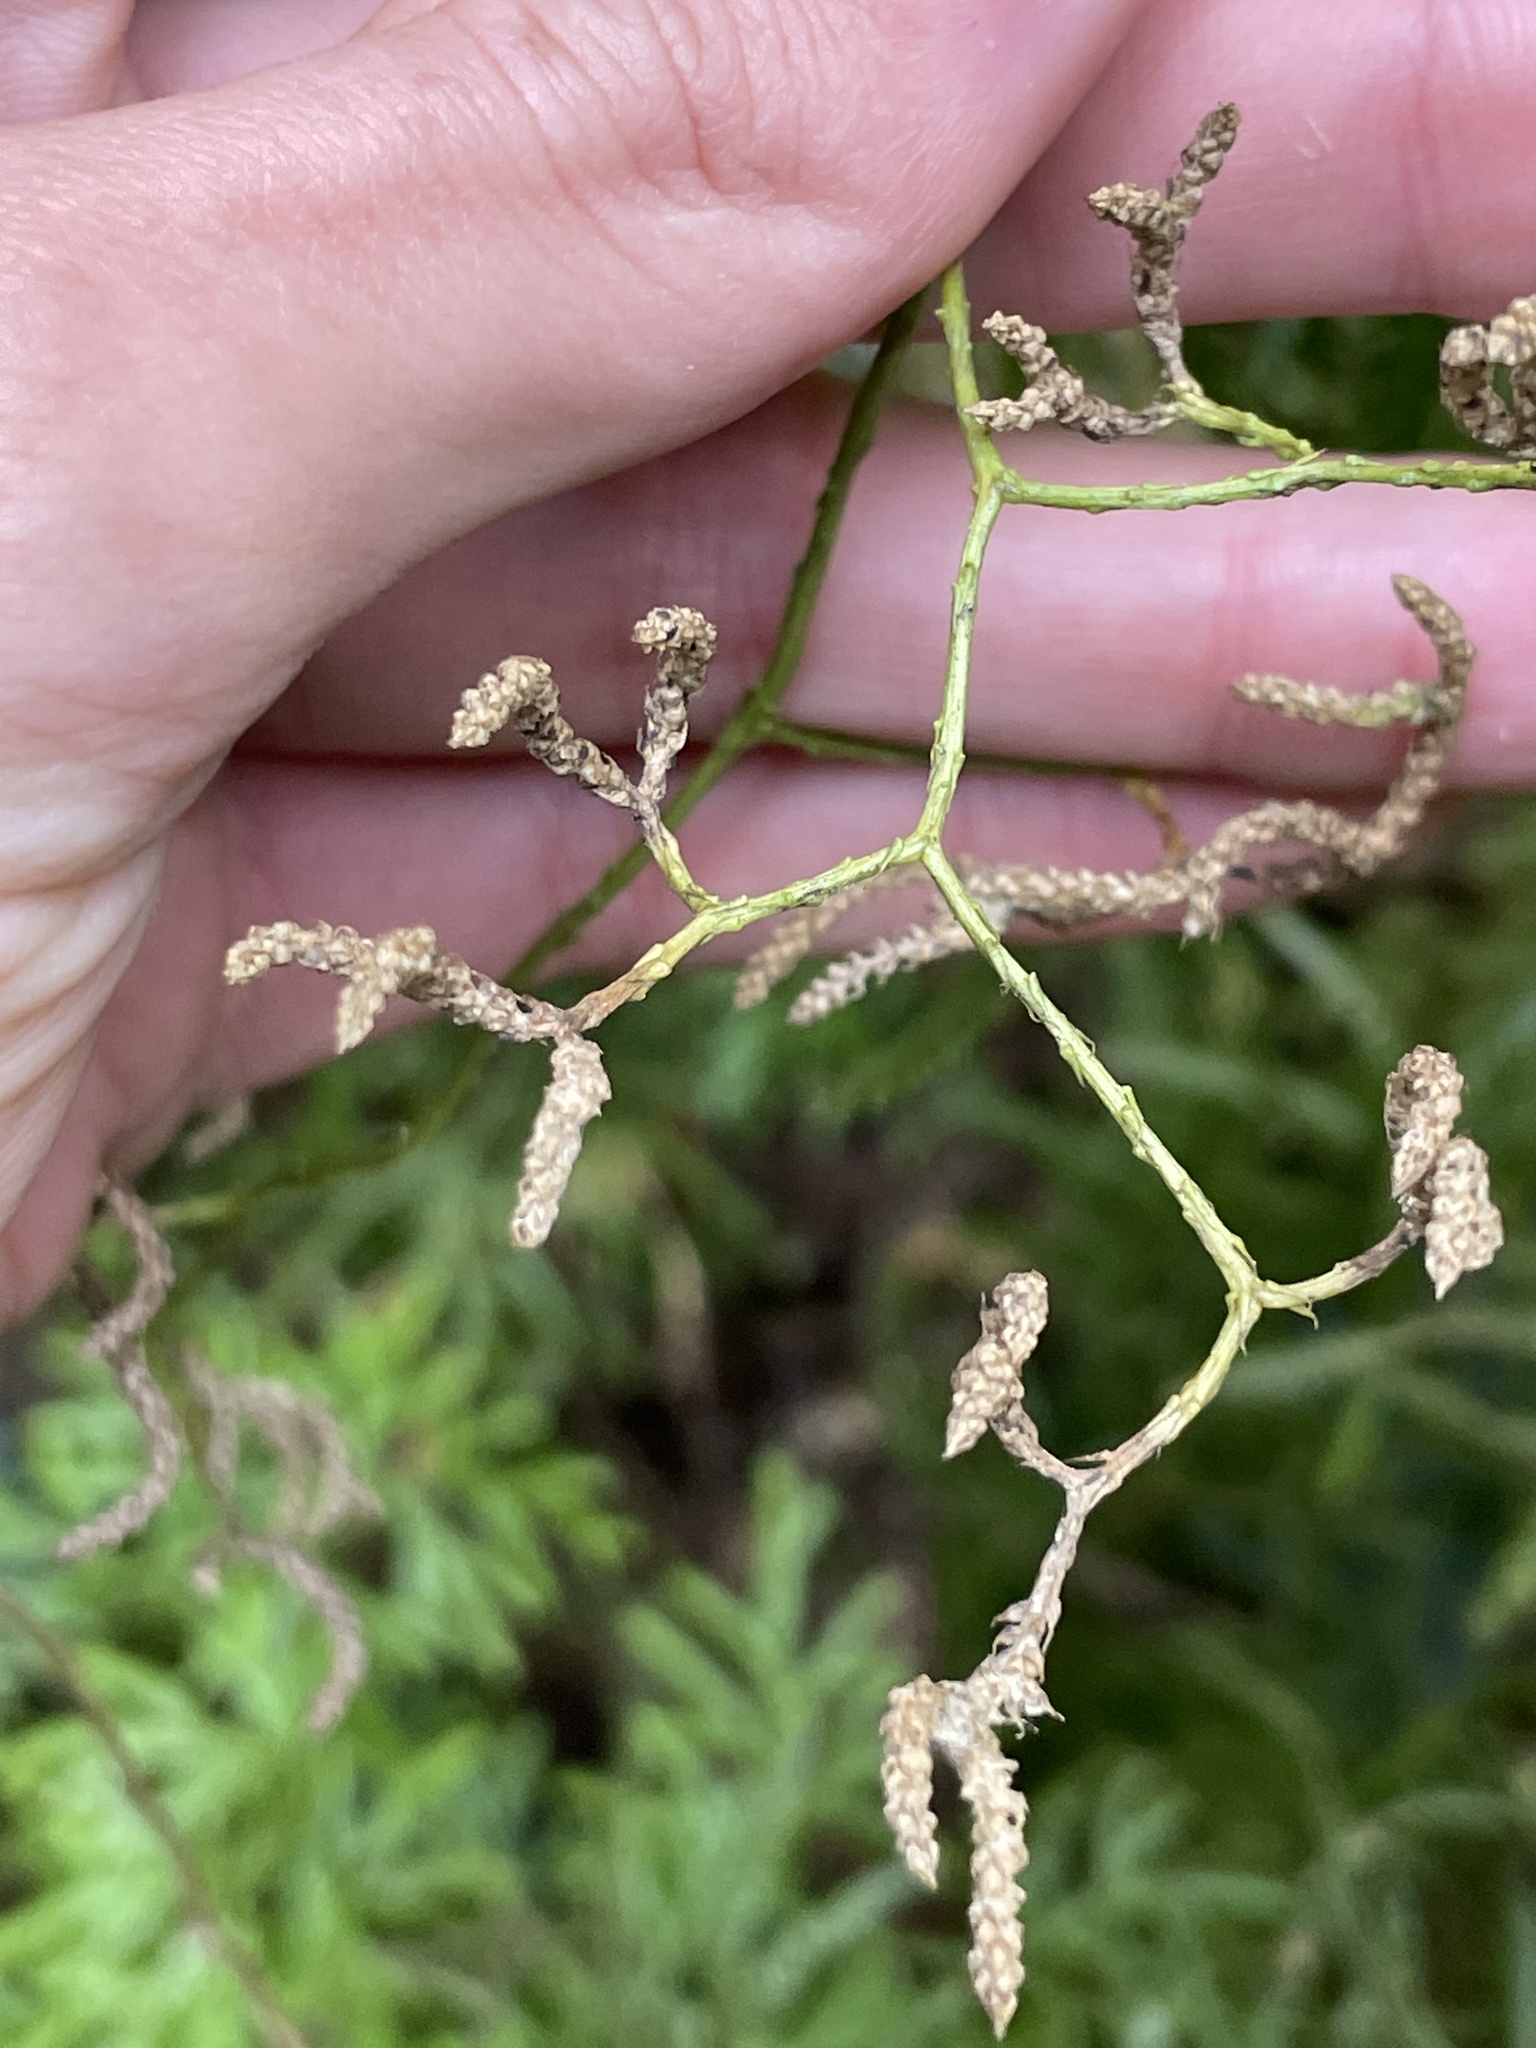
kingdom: Plantae
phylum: Tracheophyta
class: Lycopodiopsida
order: Lycopodiales
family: Lycopodiaceae
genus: Lycopodium
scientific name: Lycopodium volubile
